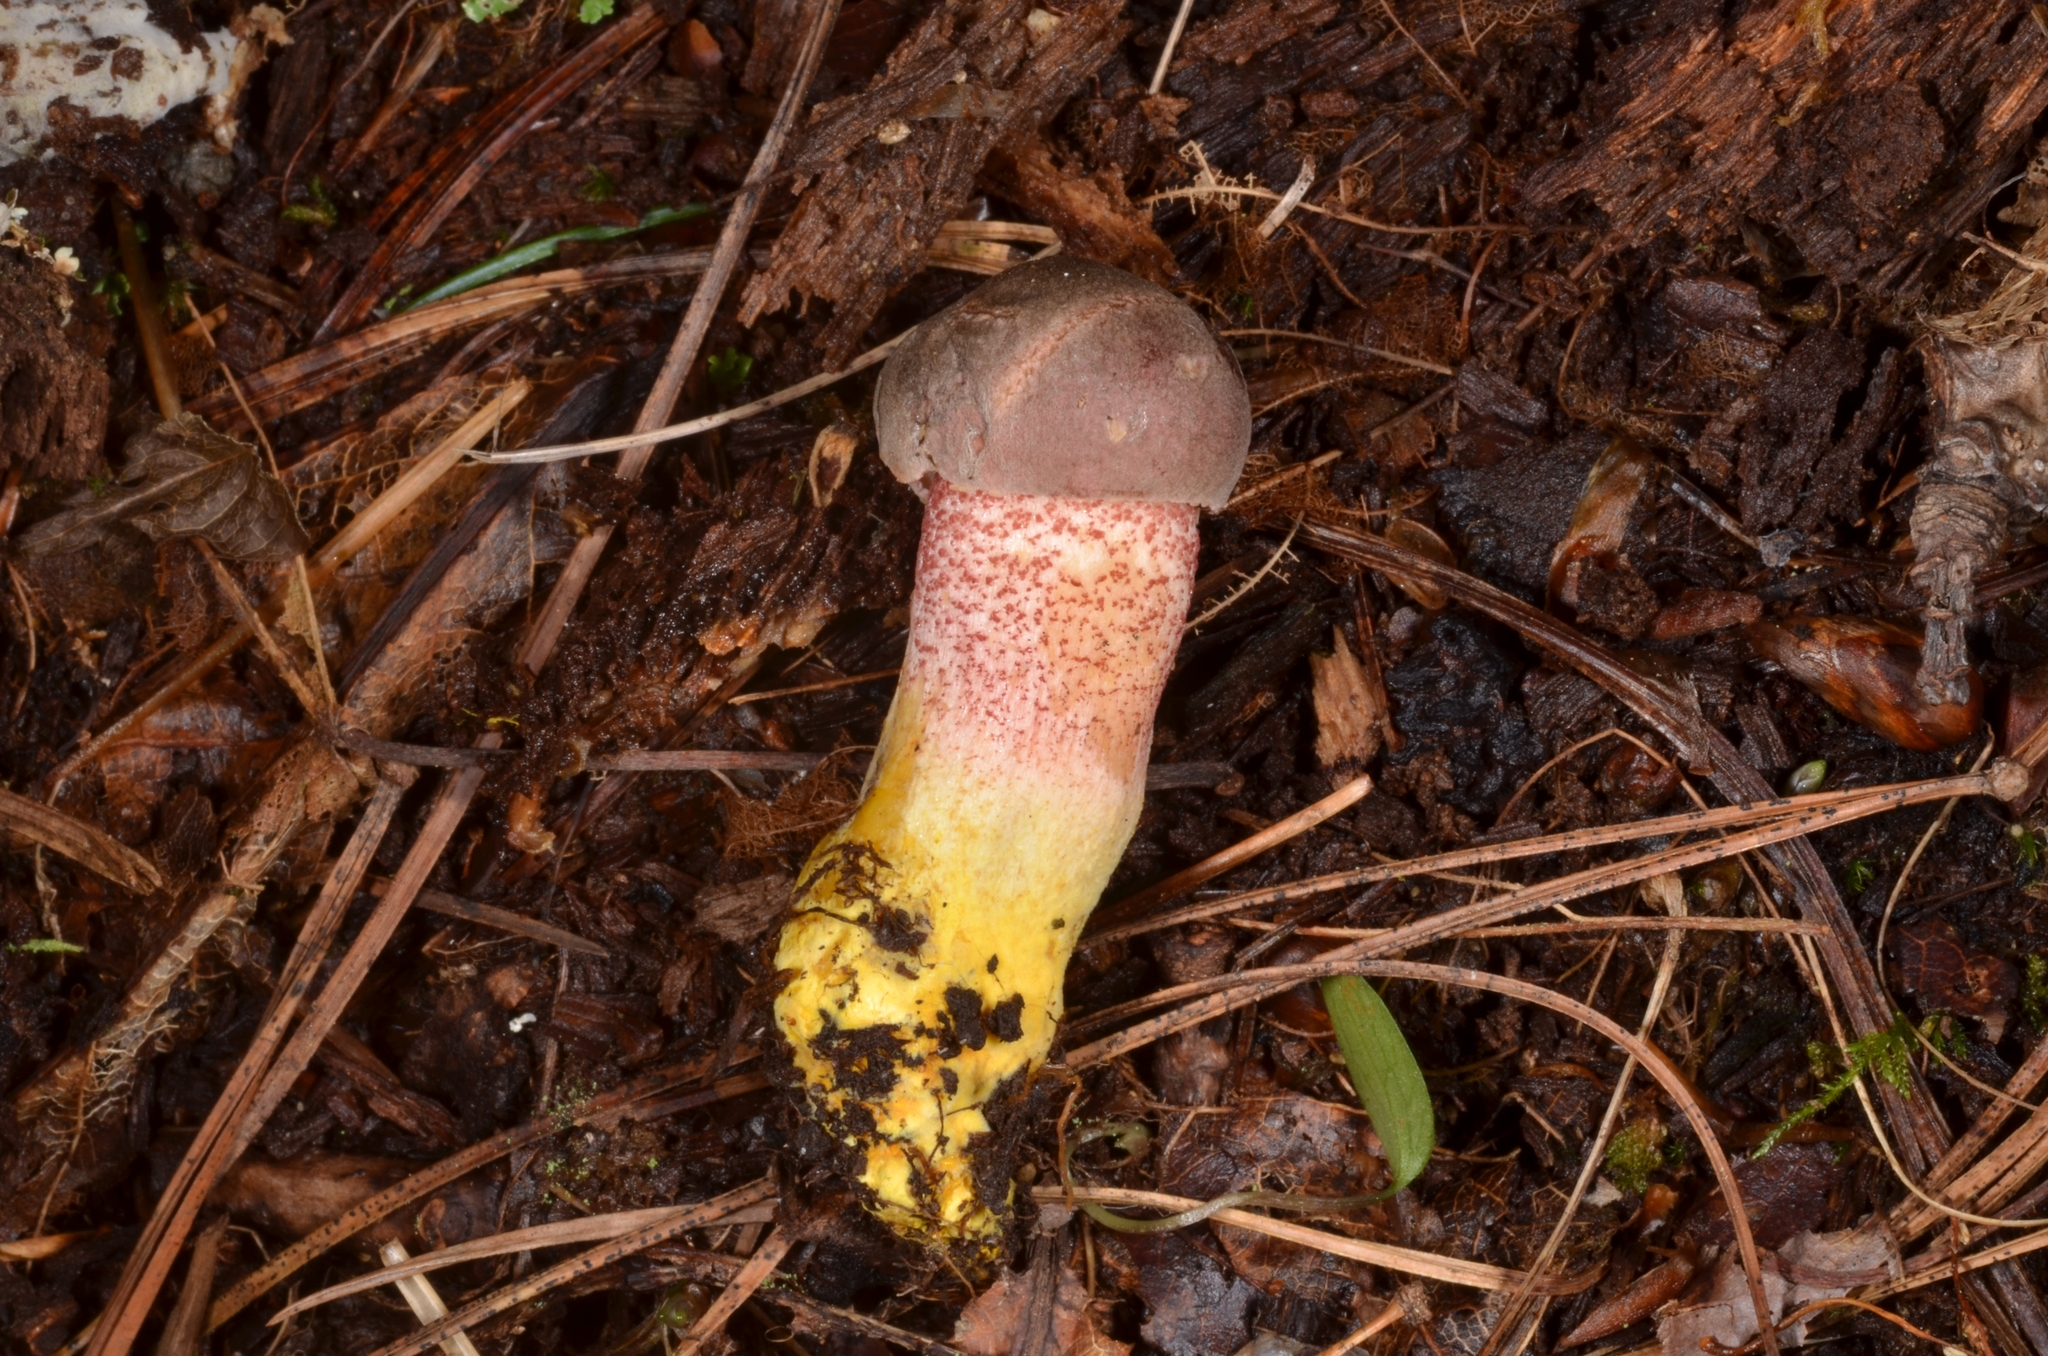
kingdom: Fungi
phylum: Basidiomycota
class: Agaricomycetes
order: Boletales
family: Boletaceae
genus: Harrya
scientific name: Harrya chromipes
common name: Chrome-footed bolete
